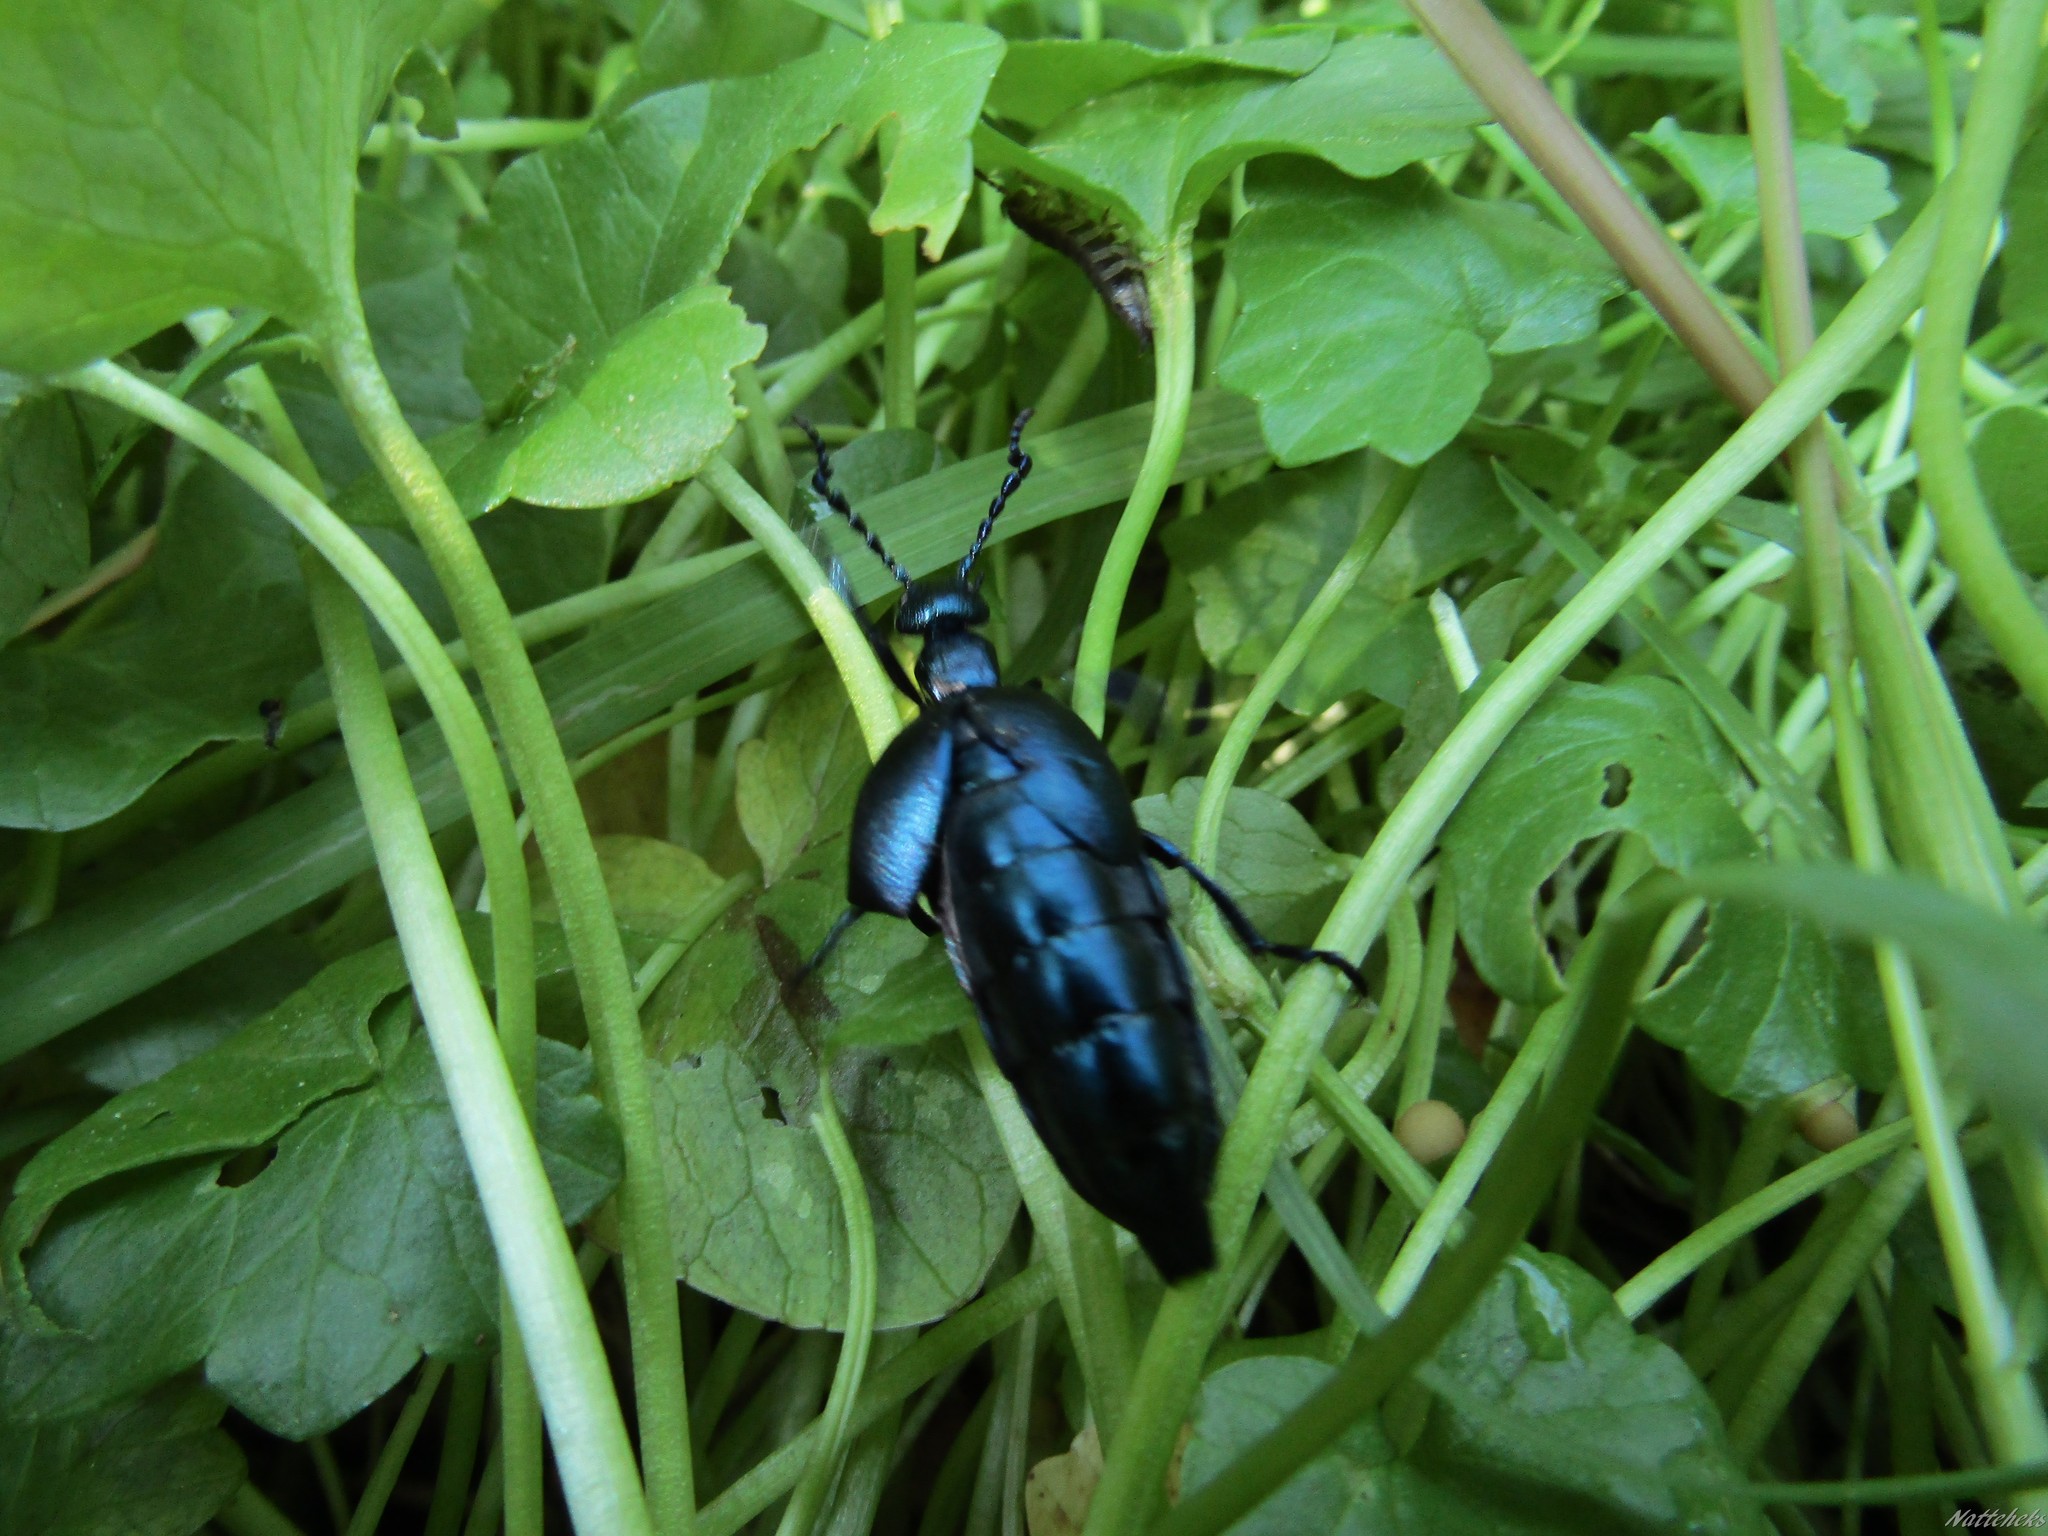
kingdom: Animalia
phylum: Arthropoda
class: Insecta
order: Coleoptera
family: Meloidae
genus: Meloe
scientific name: Meloe violaceus
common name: Violet oil-beetle
